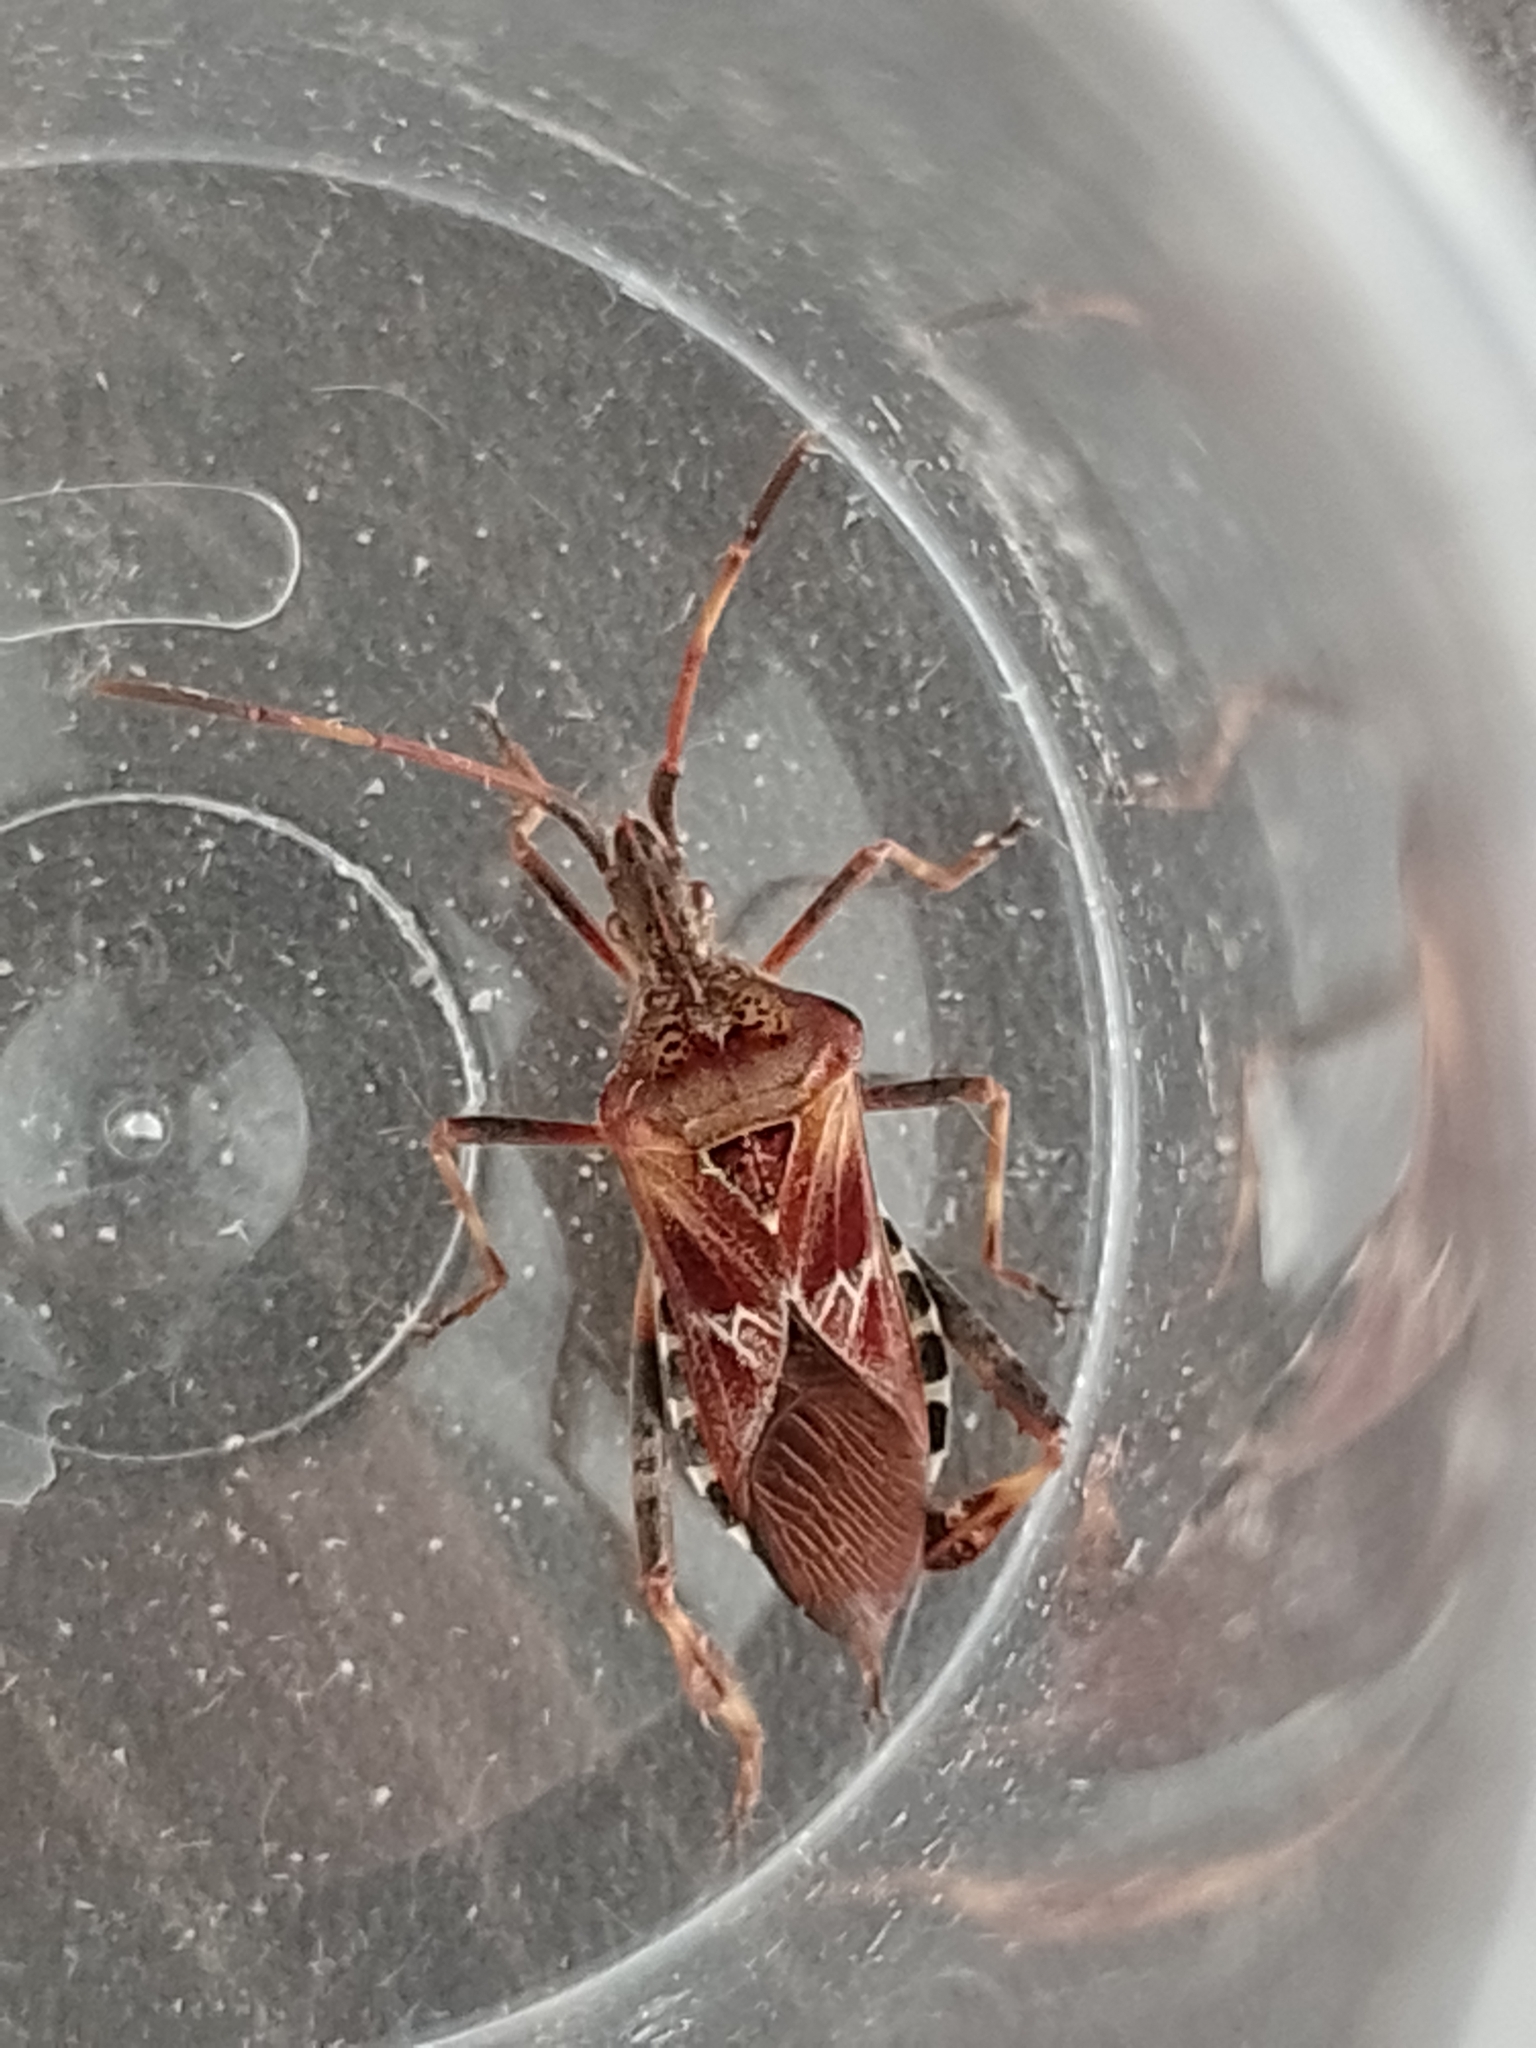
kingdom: Animalia
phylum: Arthropoda
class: Insecta
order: Hemiptera
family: Coreidae
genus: Leptoglossus
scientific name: Leptoglossus occidentalis
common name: Western conifer-seed bug
